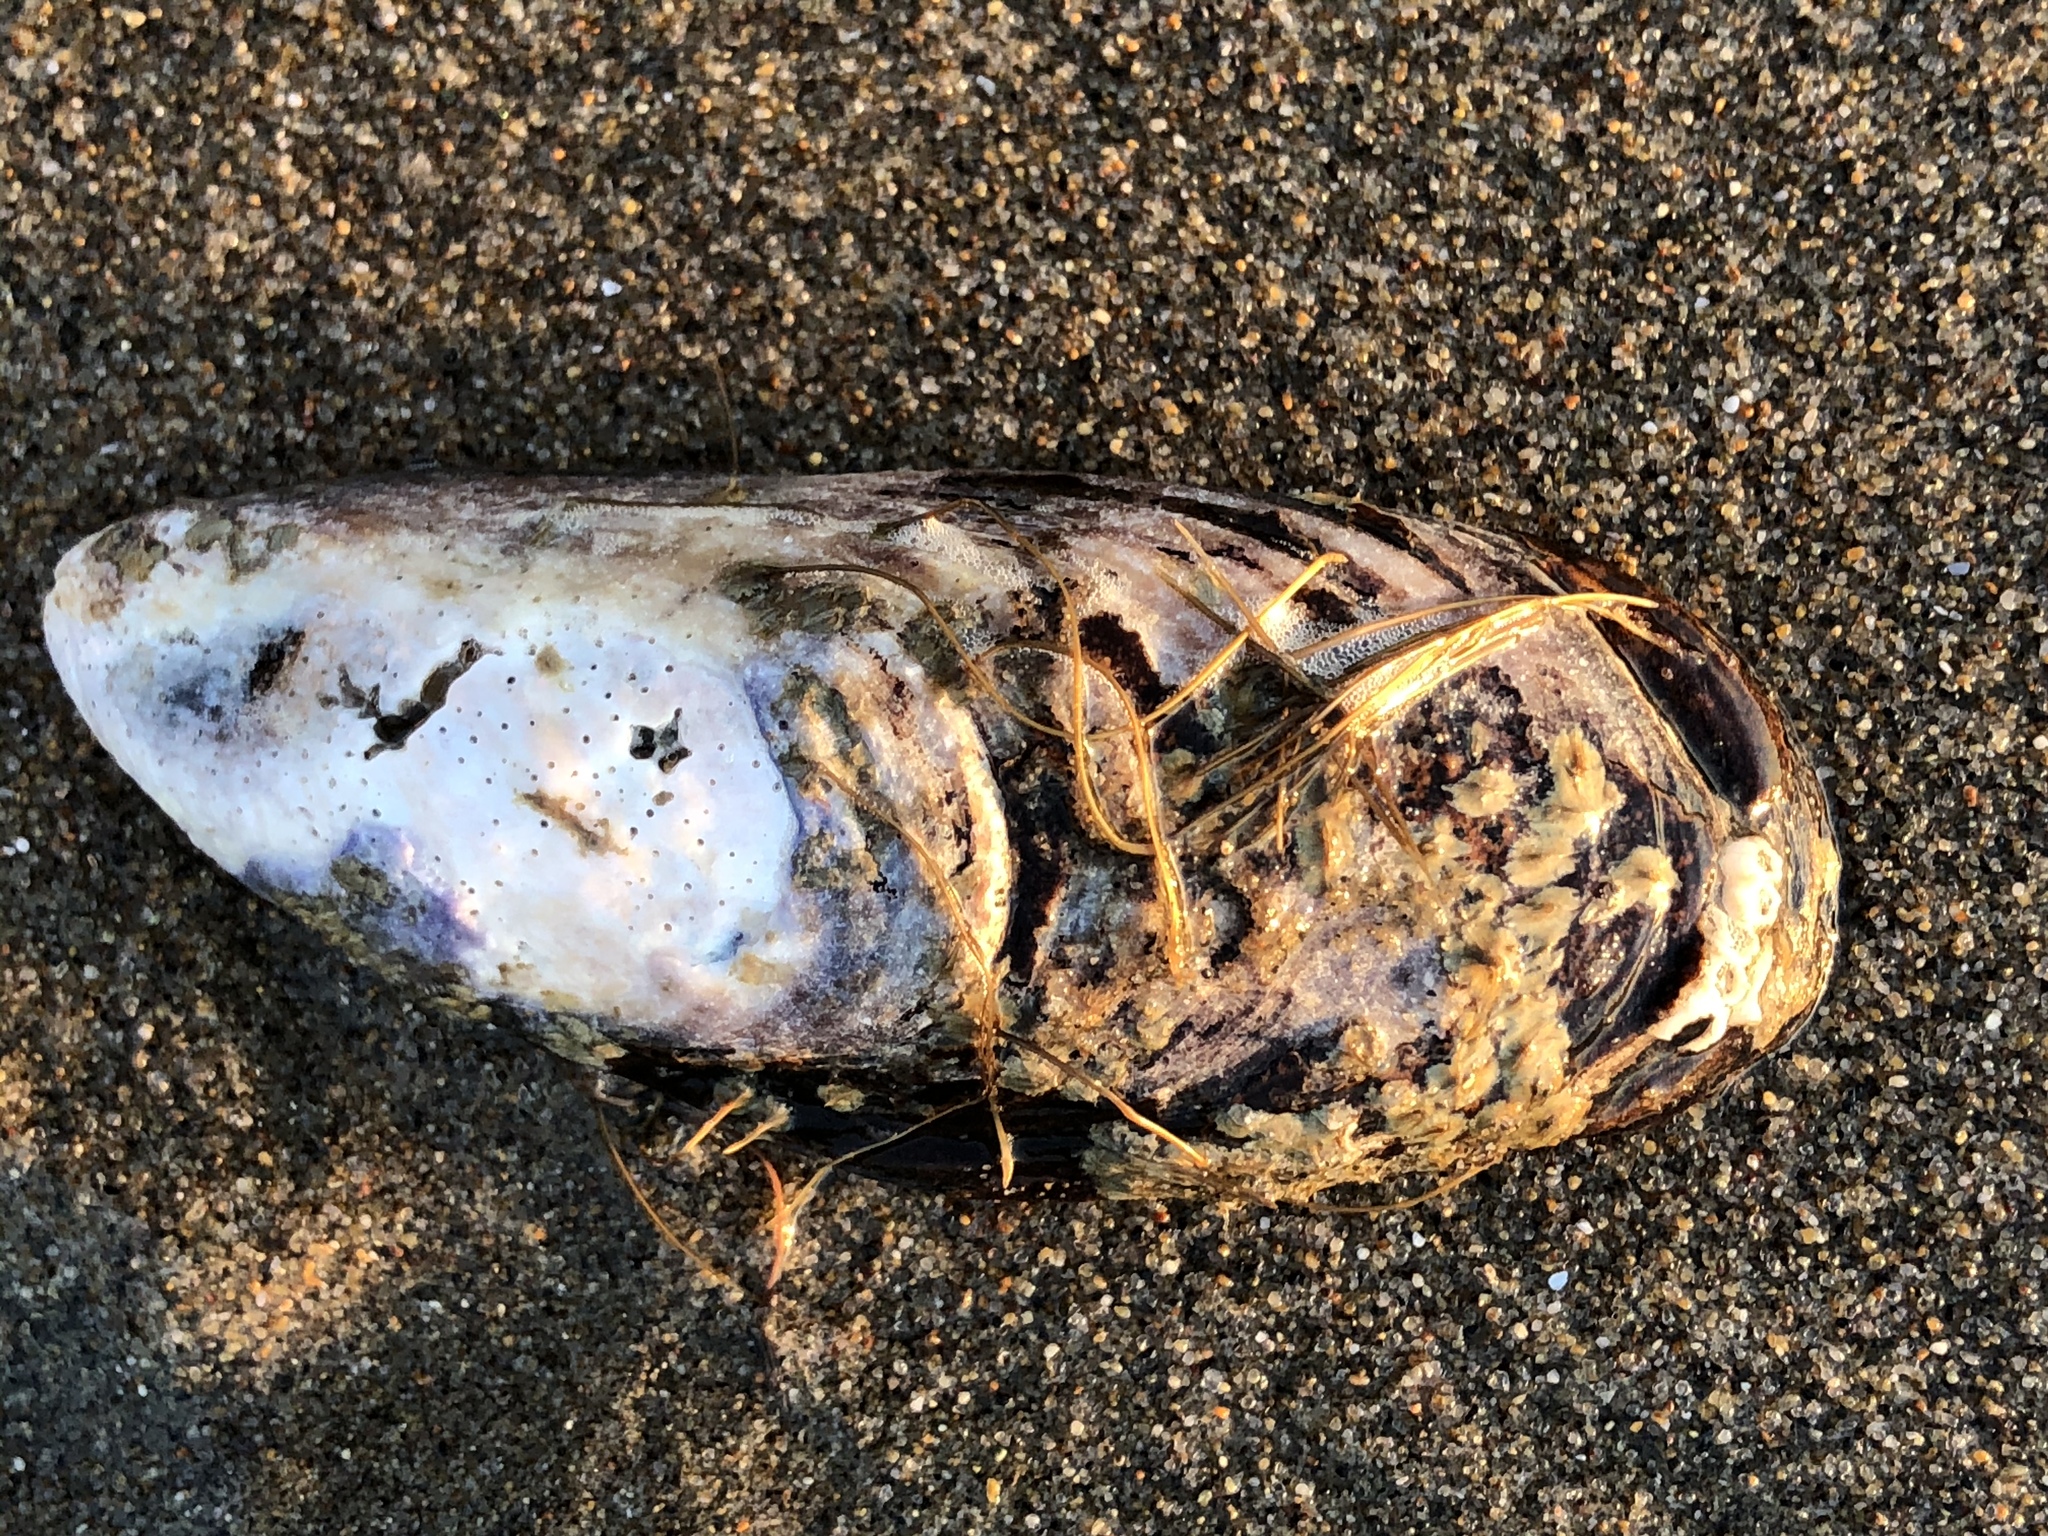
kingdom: Animalia
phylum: Mollusca
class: Bivalvia
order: Mytilida
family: Mytilidae
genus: Mytilus
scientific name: Mytilus californianus
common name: California mussel
